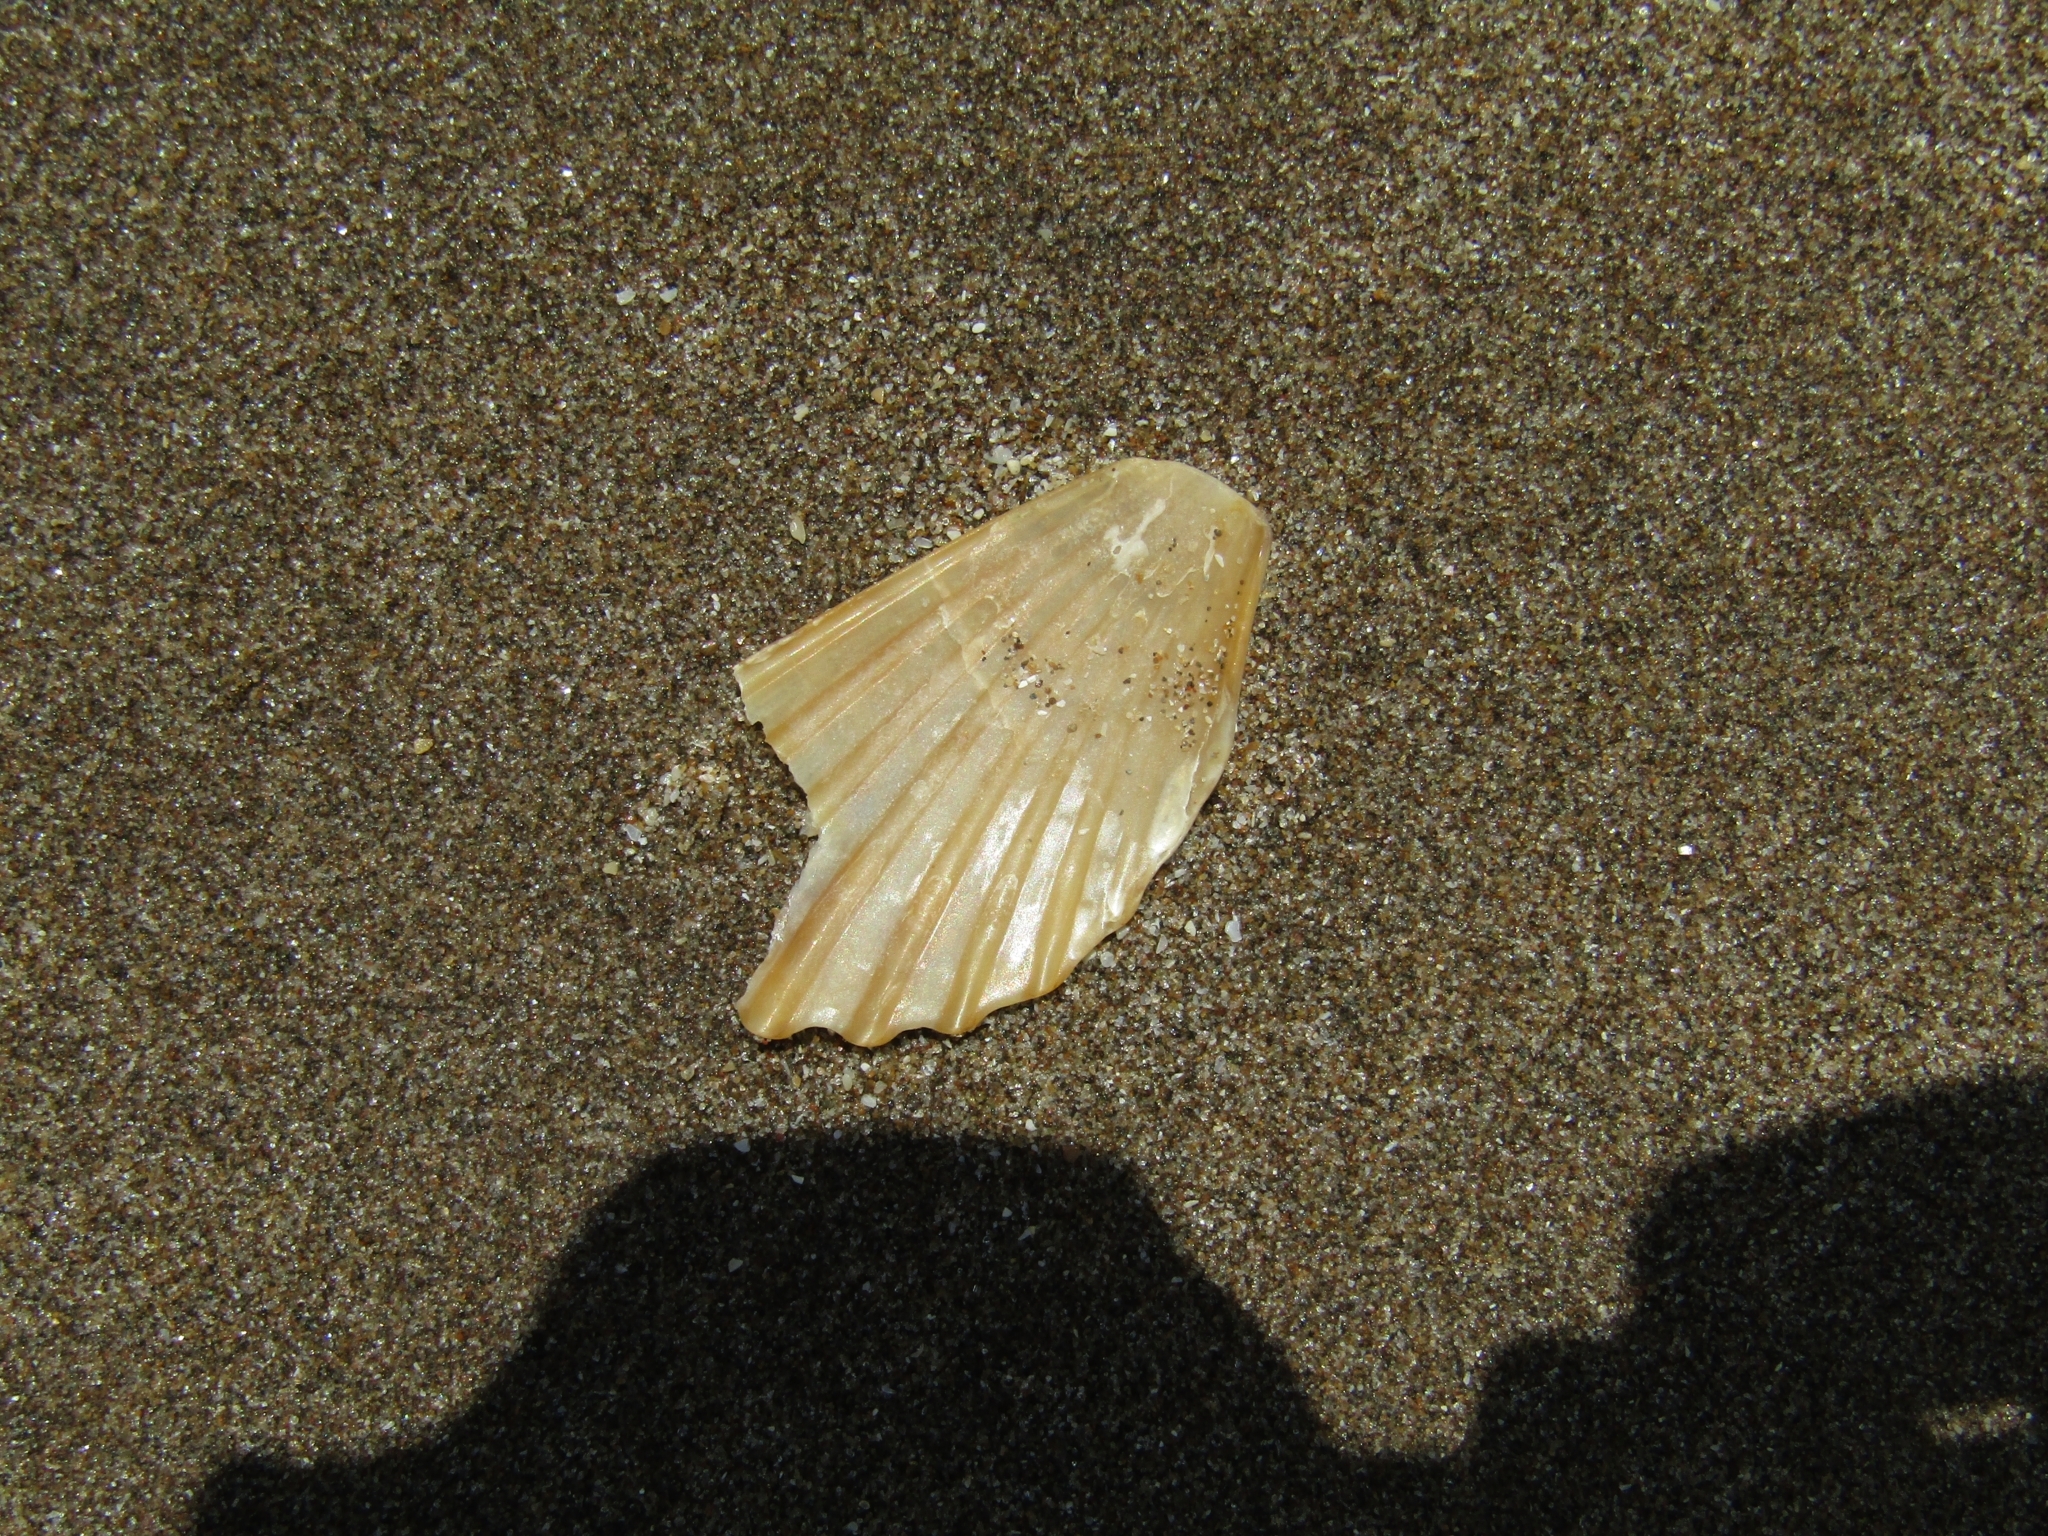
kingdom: Animalia
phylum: Mollusca
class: Bivalvia
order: Pectinida
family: Pectinidae
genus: Aequipecten
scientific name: Aequipecten tehuelchus
